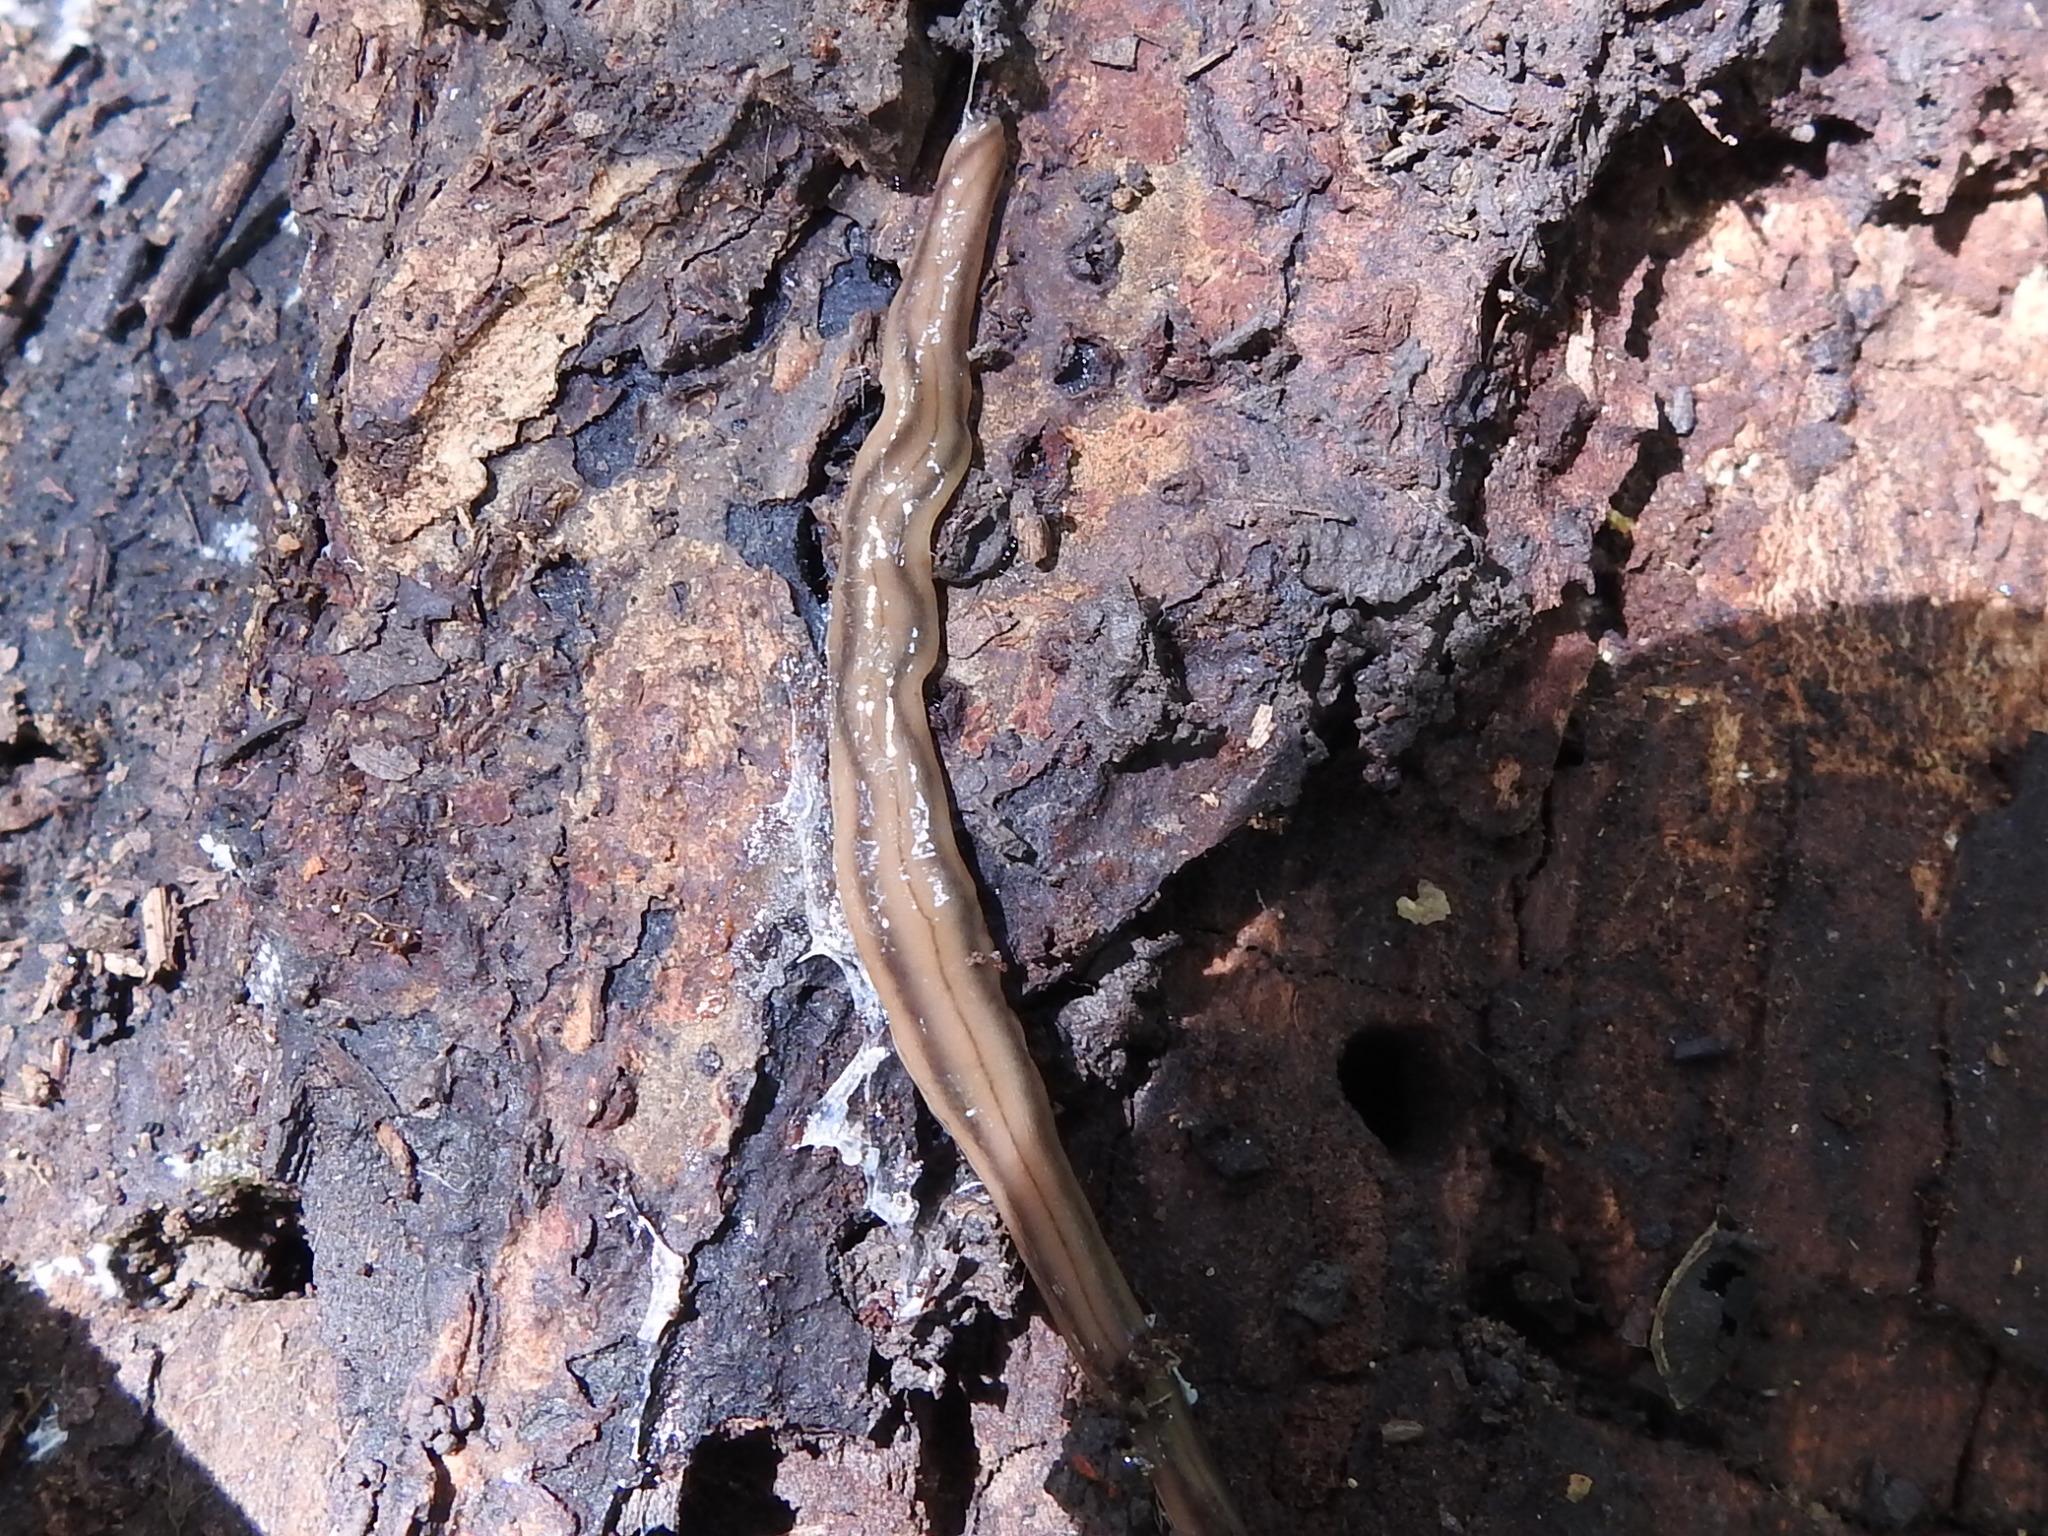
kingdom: Animalia
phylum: Platyhelminthes
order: Tricladida
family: Geoplanidae
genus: Bipalium
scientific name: Bipalium kewense
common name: Hammerhead flatworm
